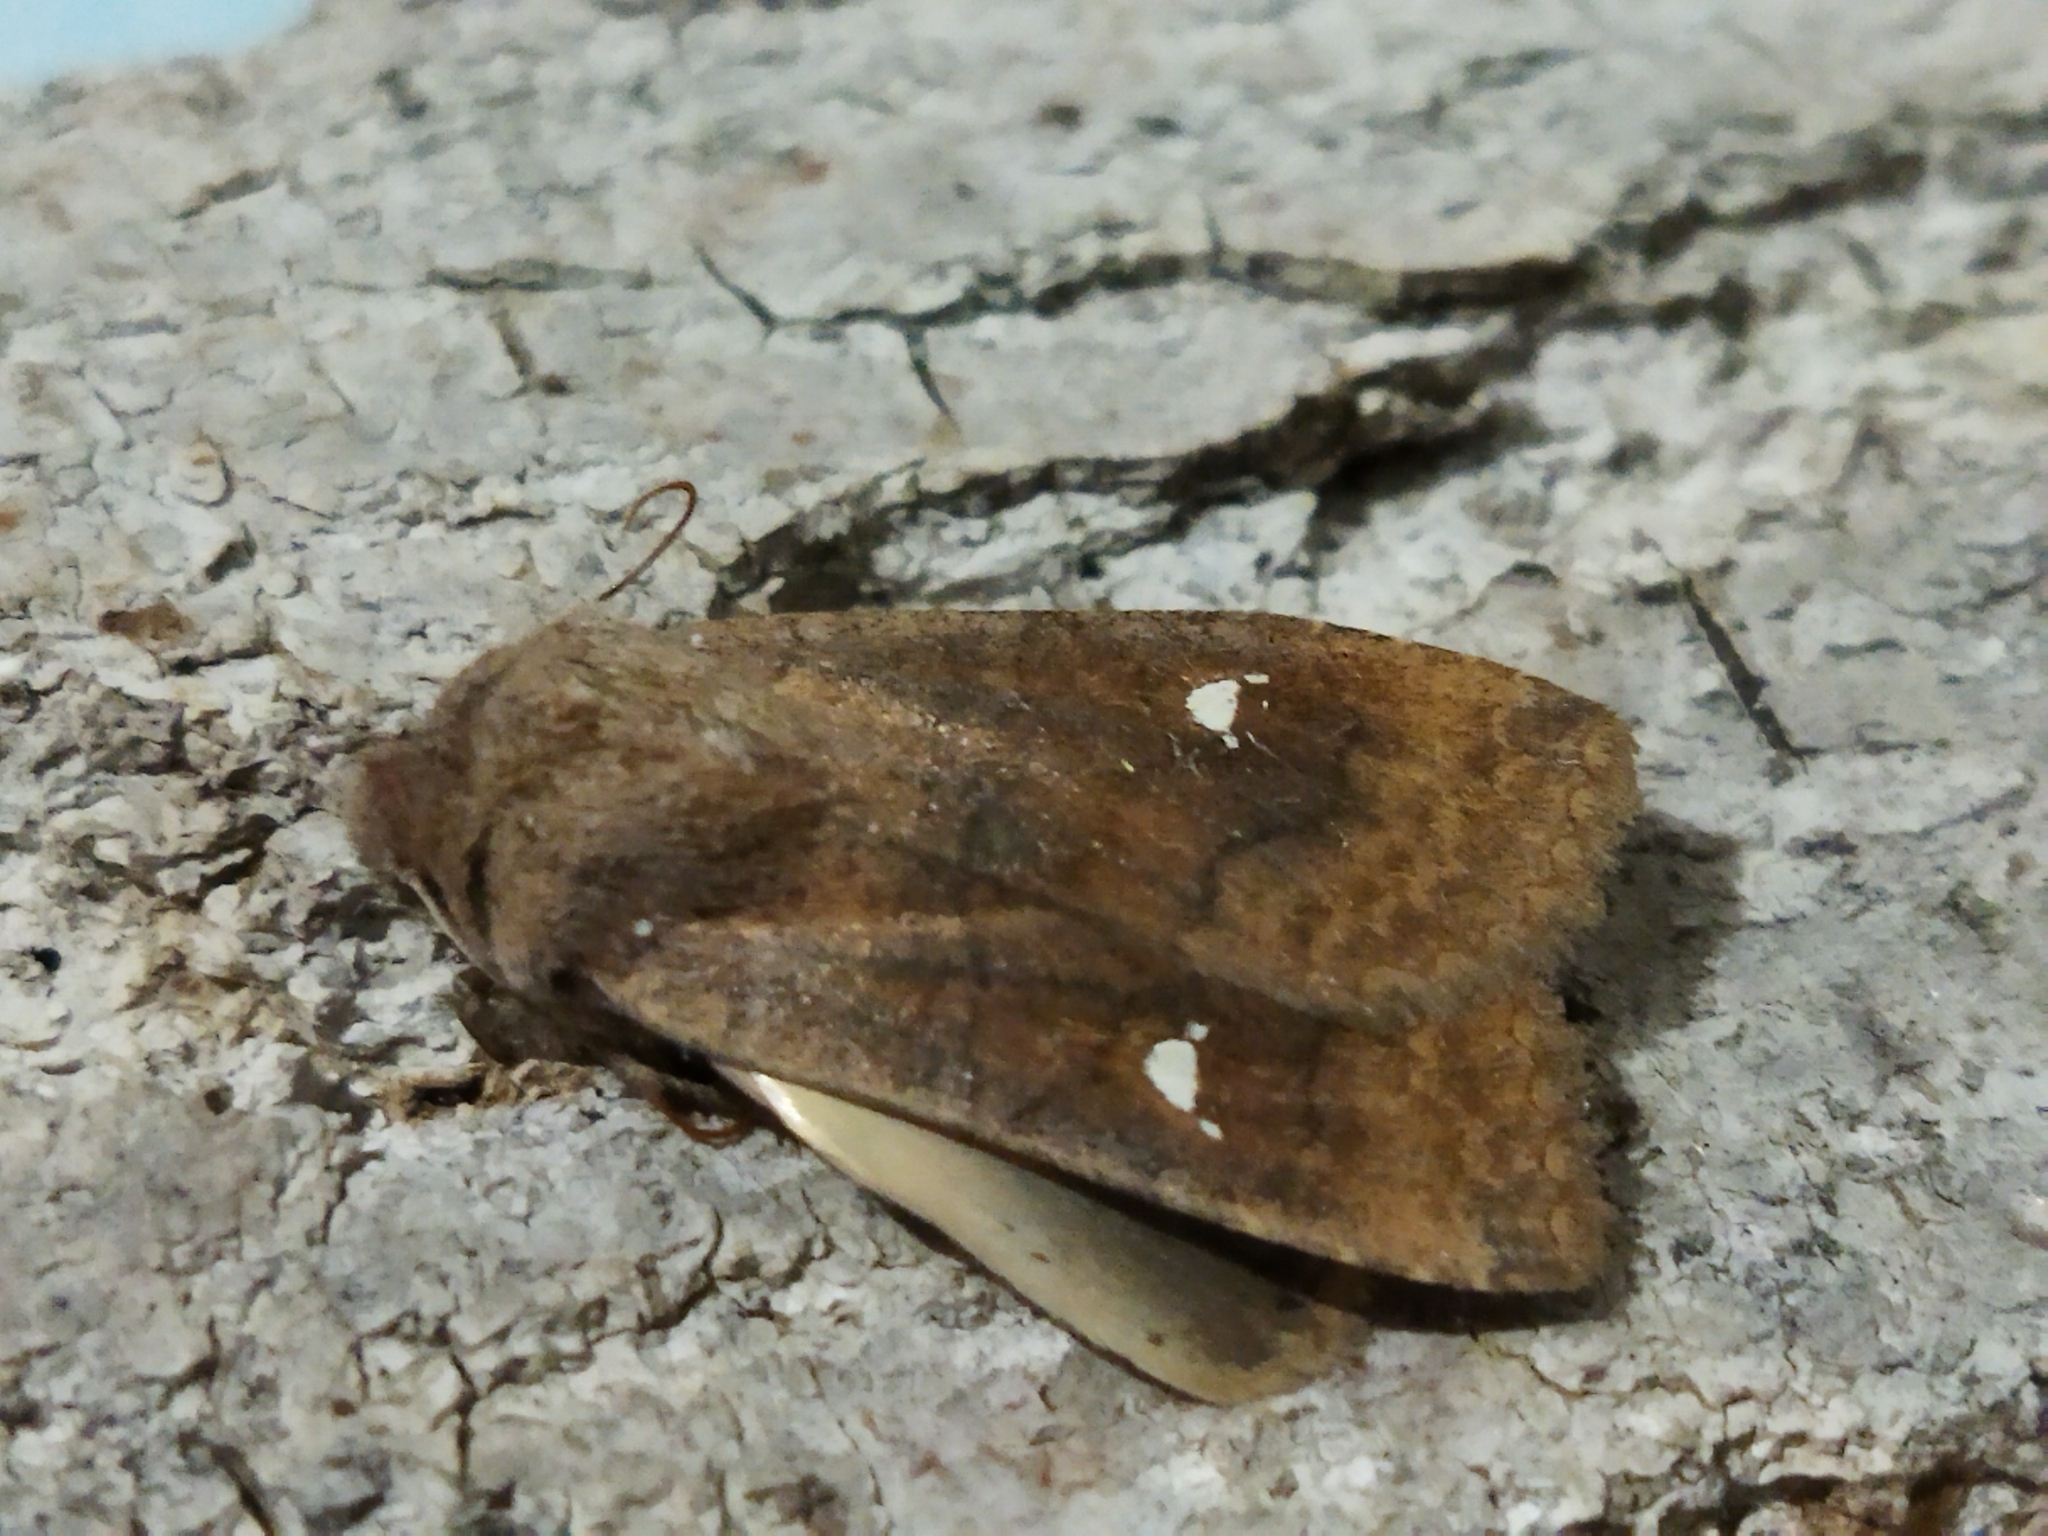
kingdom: Animalia
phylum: Arthropoda
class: Insecta
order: Lepidoptera
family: Noctuidae
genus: Eupsilia
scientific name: Eupsilia transversa
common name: Satellite
